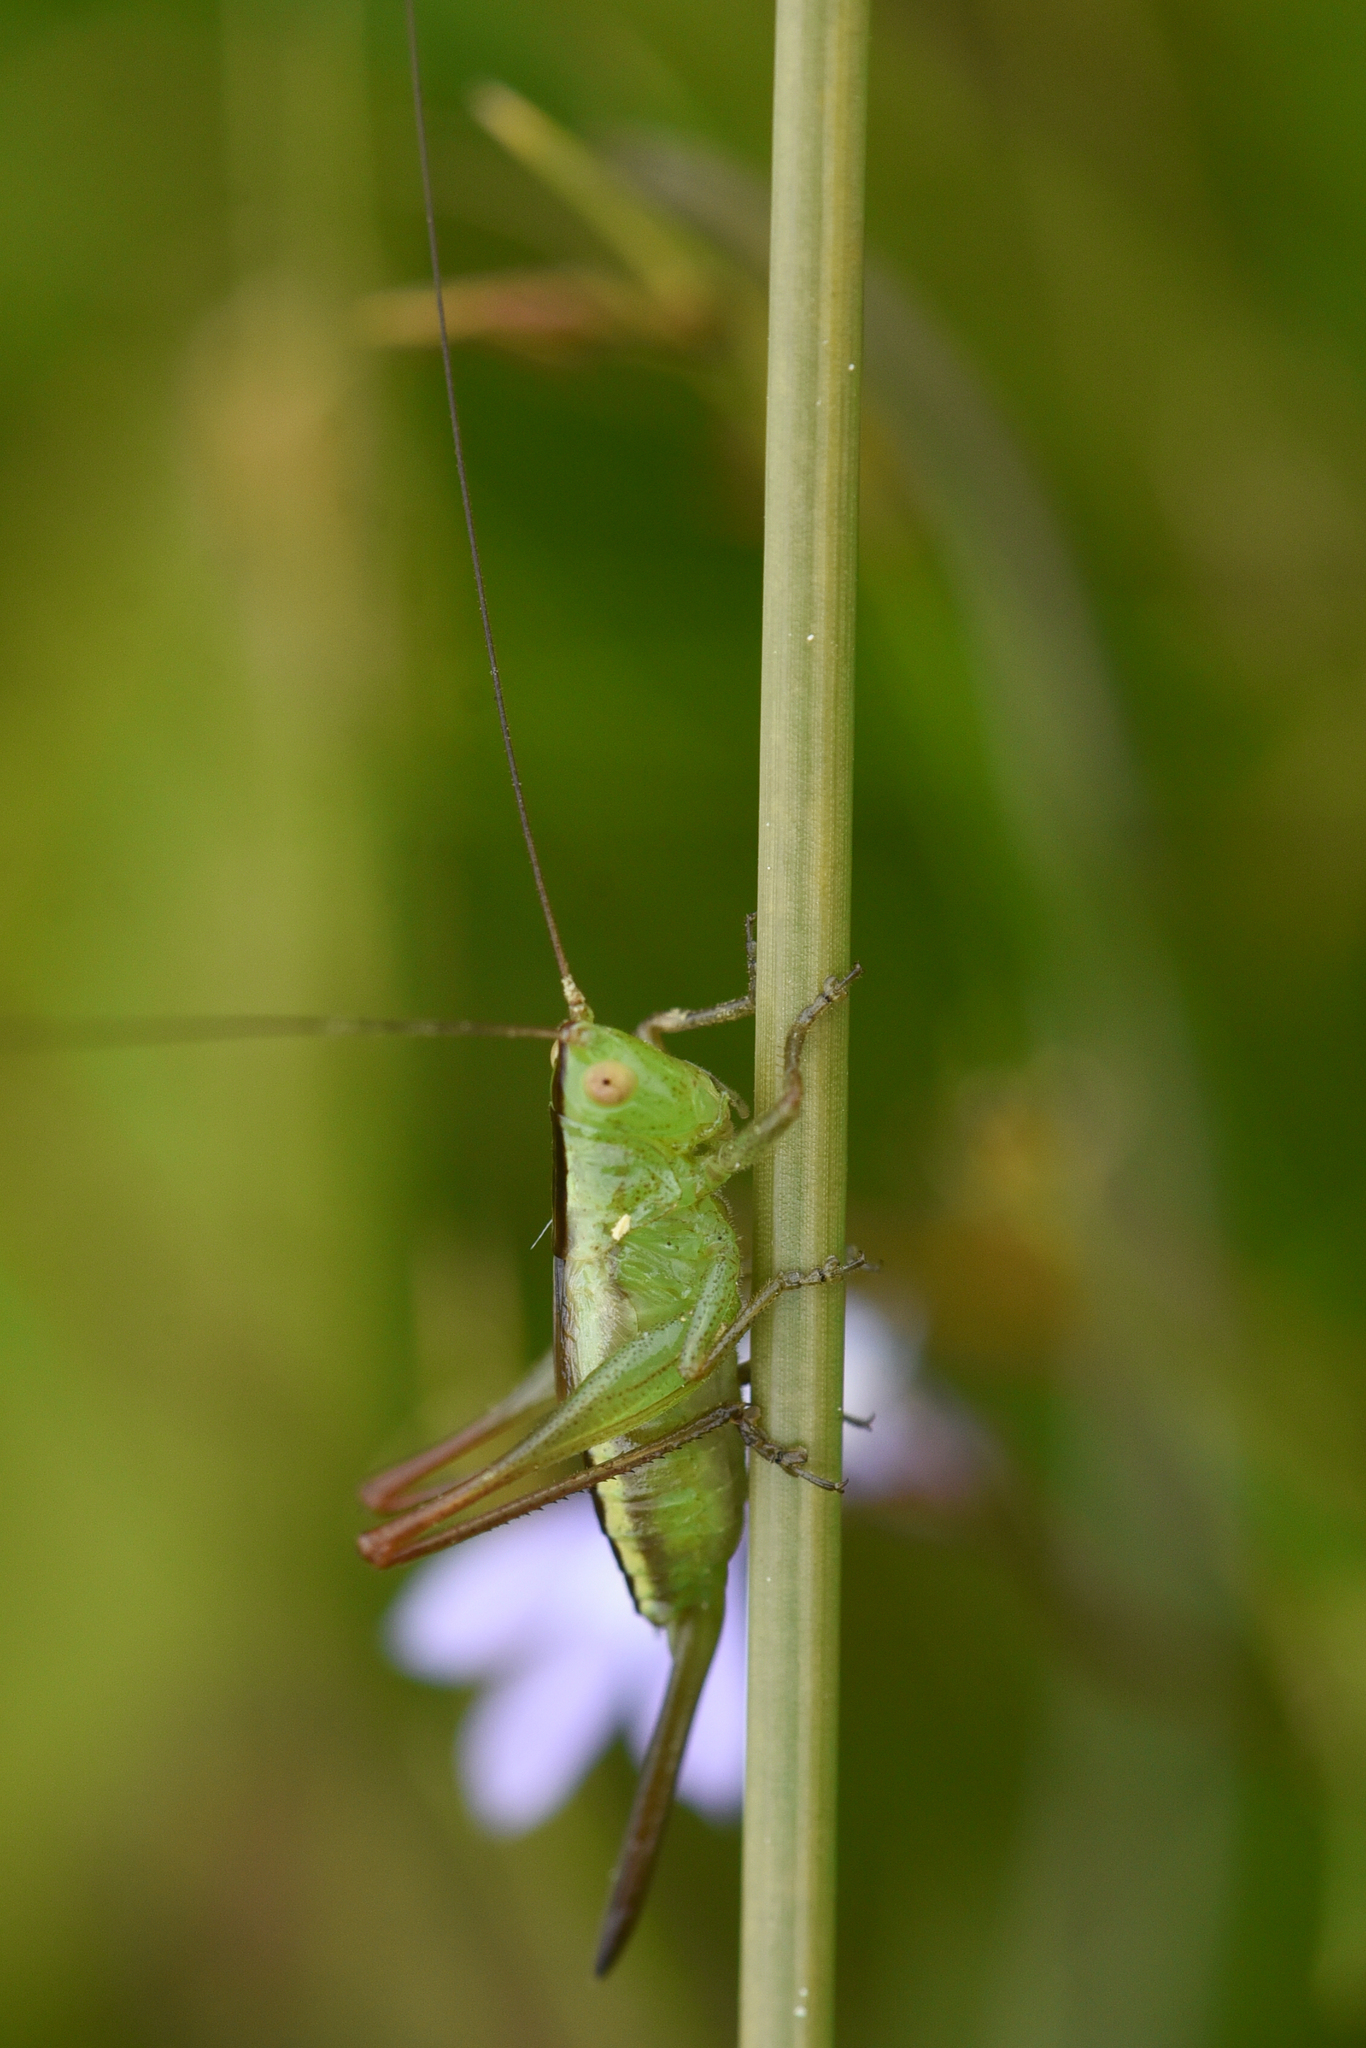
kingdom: Animalia
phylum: Arthropoda
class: Insecta
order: Orthoptera
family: Tettigoniidae
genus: Conocephalus
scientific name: Conocephalus fasciatus
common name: Slender meadow katydid
